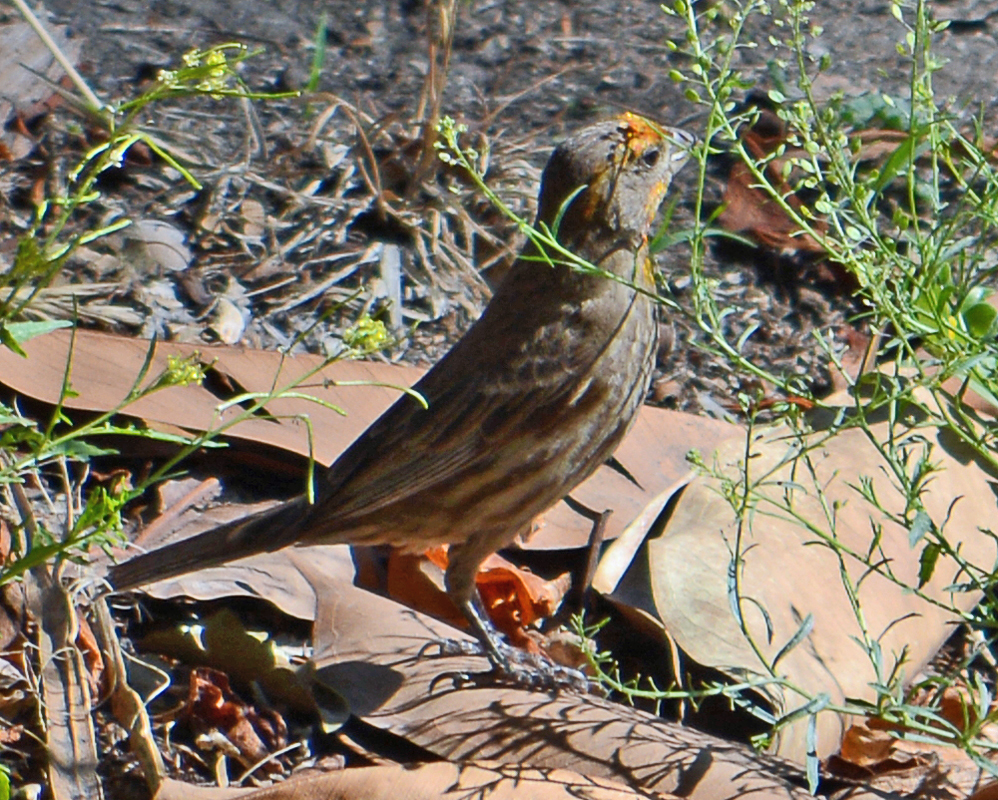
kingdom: Animalia
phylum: Chordata
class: Aves
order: Passeriformes
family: Fringillidae
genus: Haemorhous
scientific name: Haemorhous mexicanus
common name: House finch
